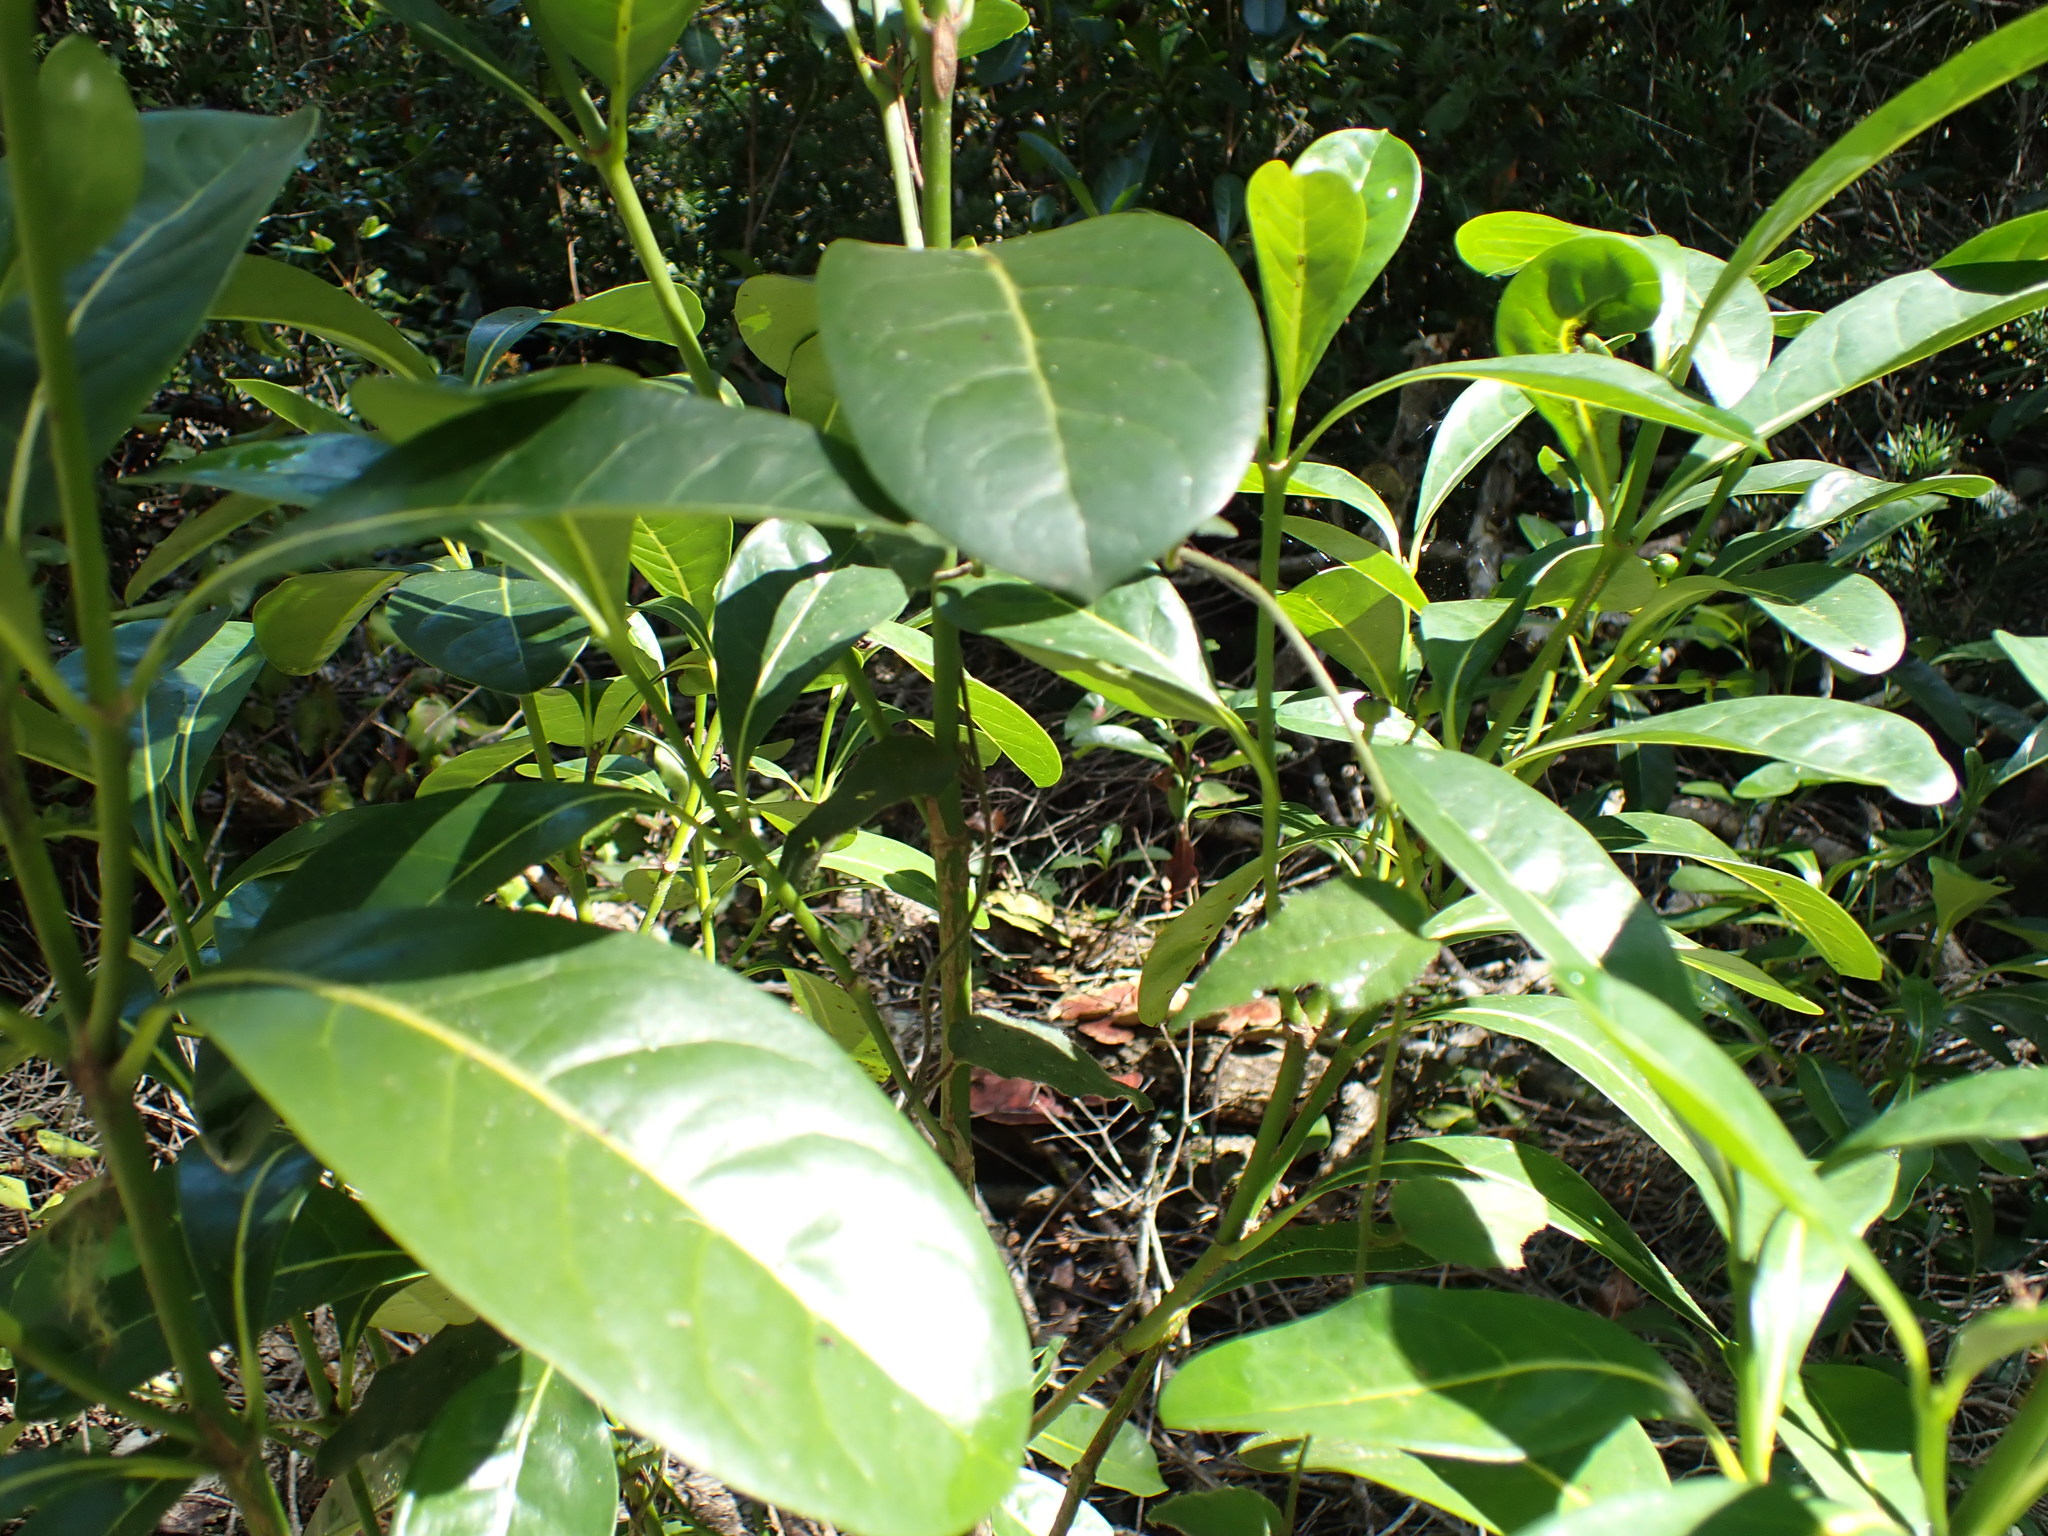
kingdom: Plantae
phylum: Tracheophyta
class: Magnoliopsida
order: Gentianales
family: Rubiaceae
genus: Psychotria
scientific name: Psychotria capensis
